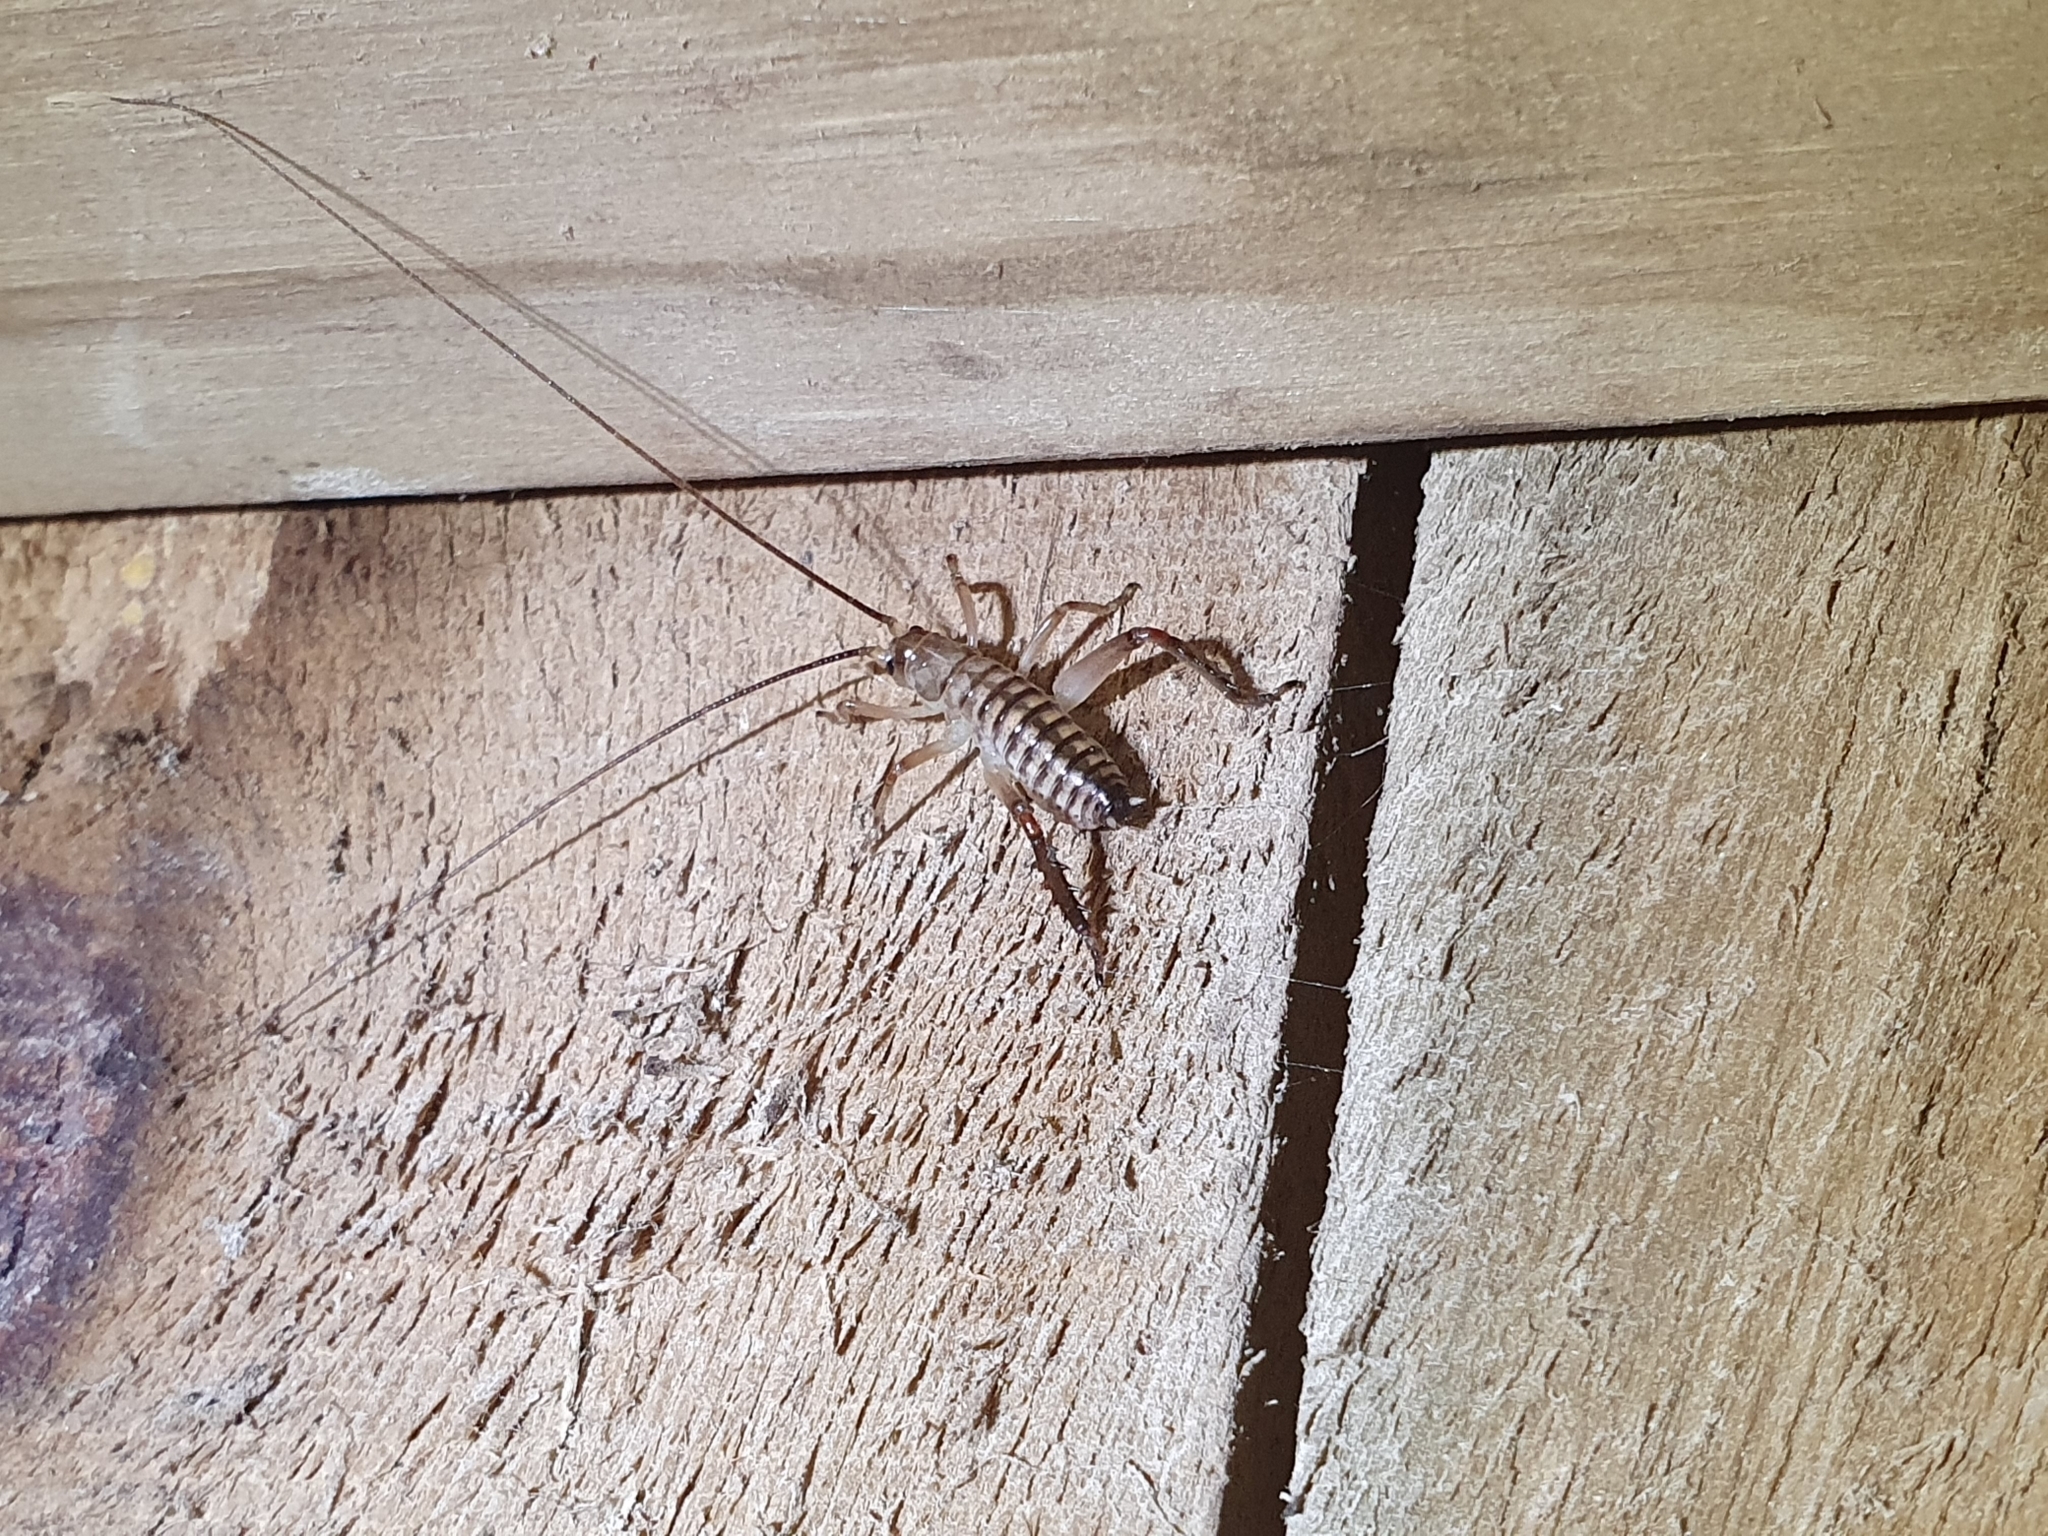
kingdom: Animalia
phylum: Arthropoda
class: Insecta
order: Orthoptera
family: Anostostomatidae
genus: Hemideina
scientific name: Hemideina crassidens
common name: Wellington tree weta
